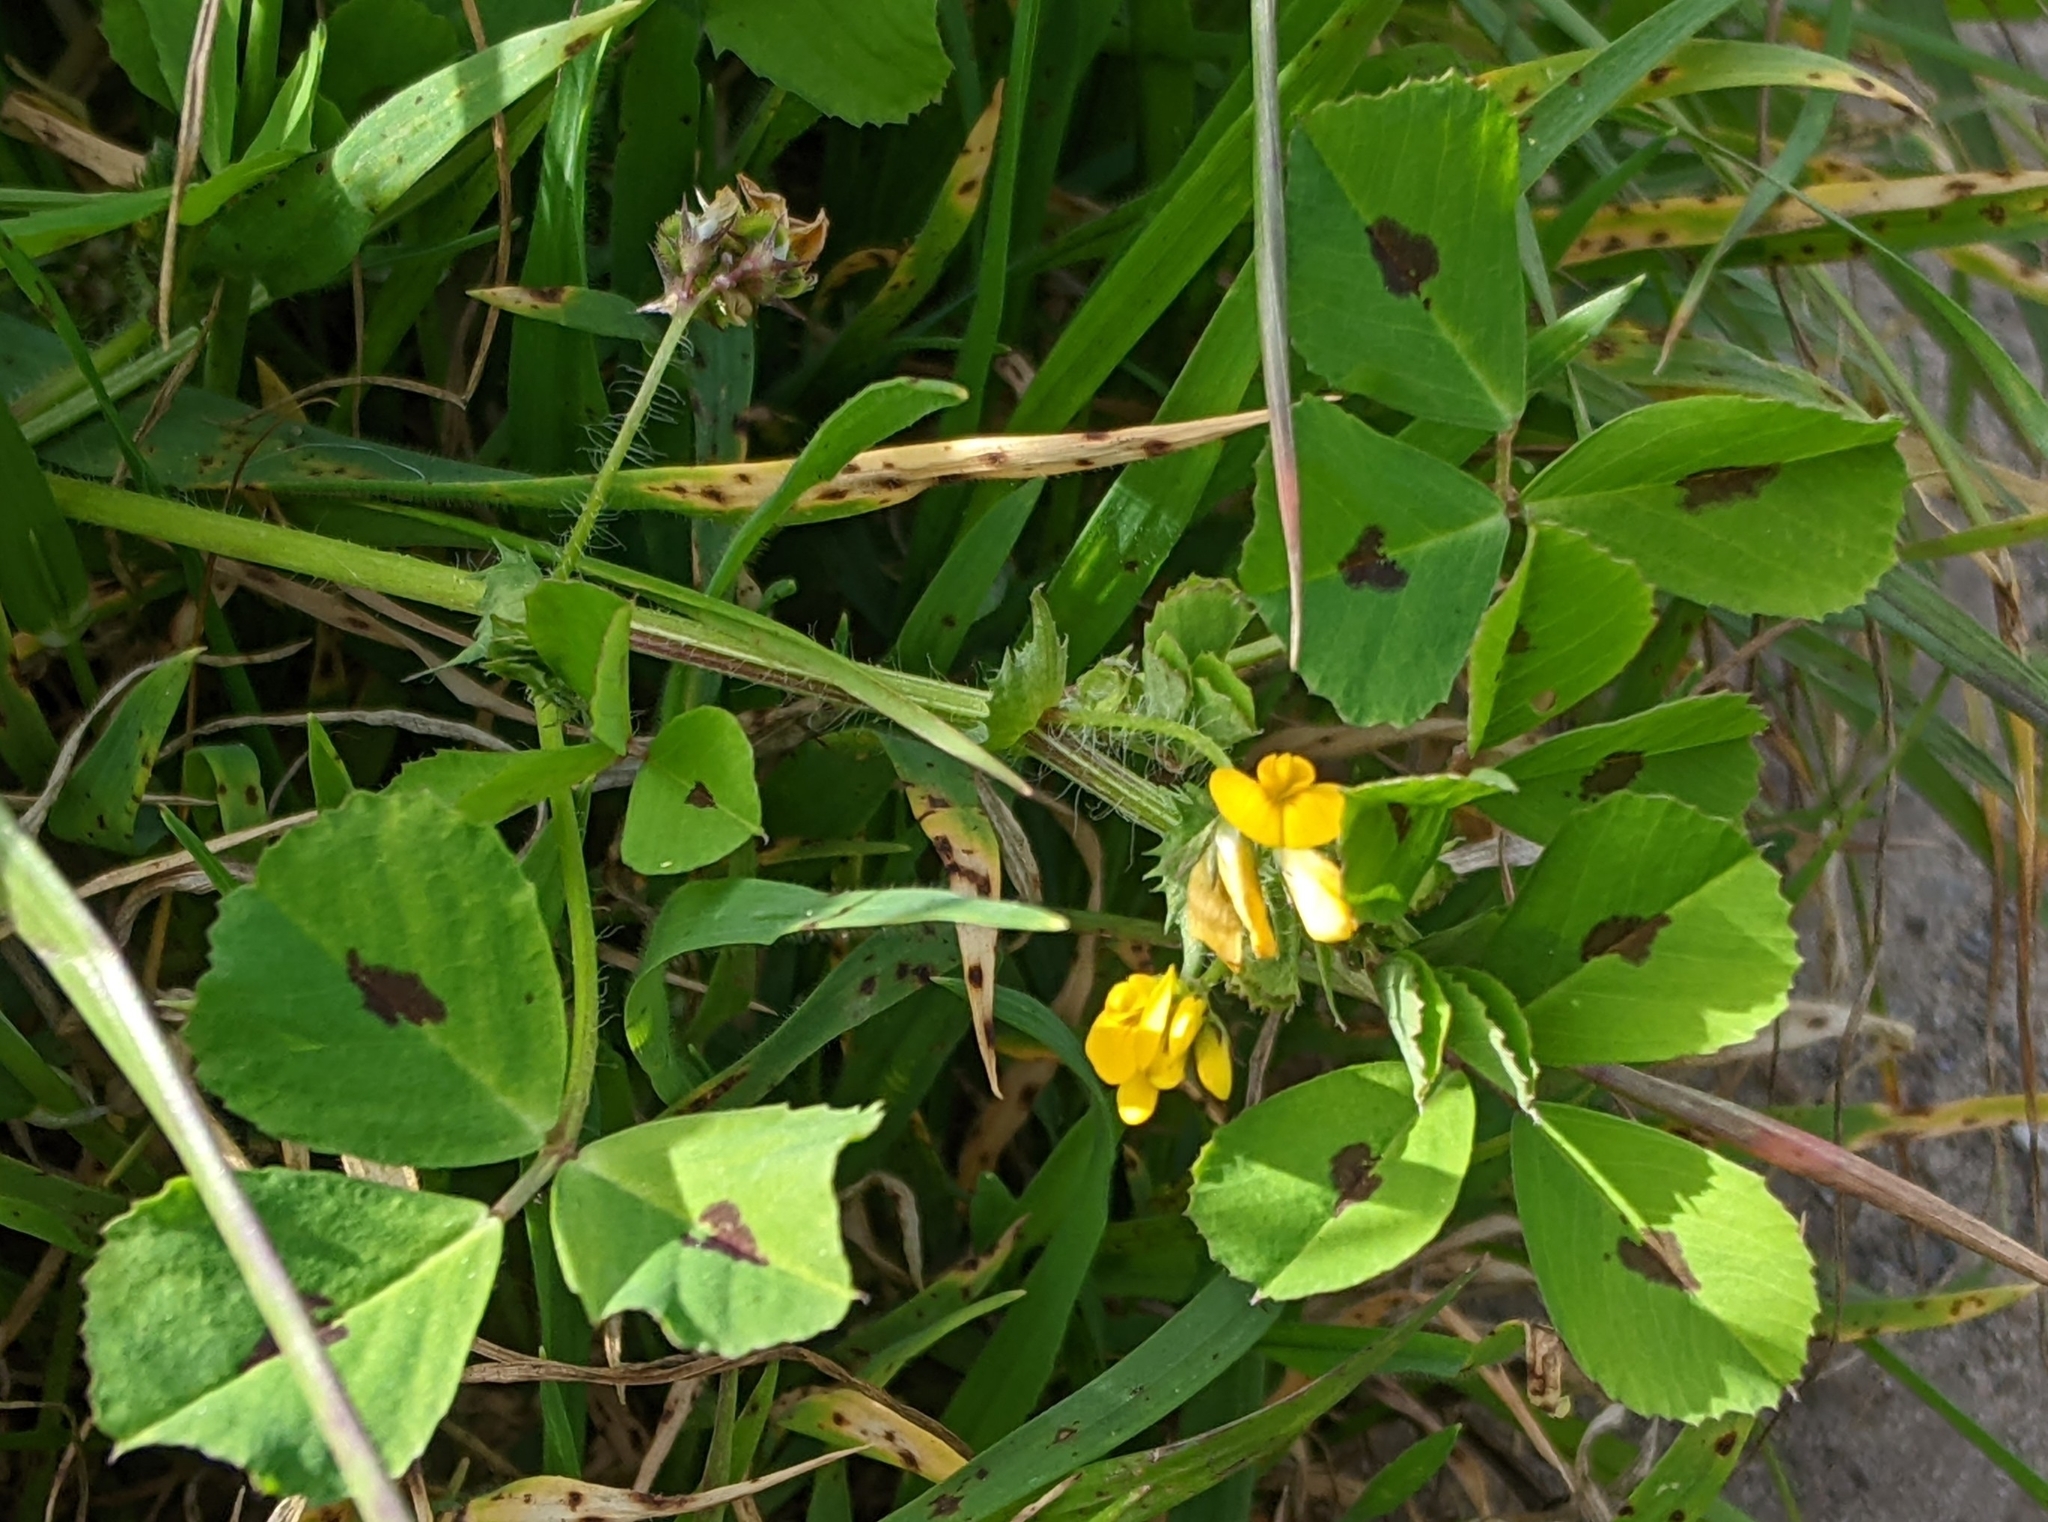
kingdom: Plantae
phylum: Tracheophyta
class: Magnoliopsida
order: Fabales
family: Fabaceae
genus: Medicago
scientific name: Medicago arabica
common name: Spotted medick
